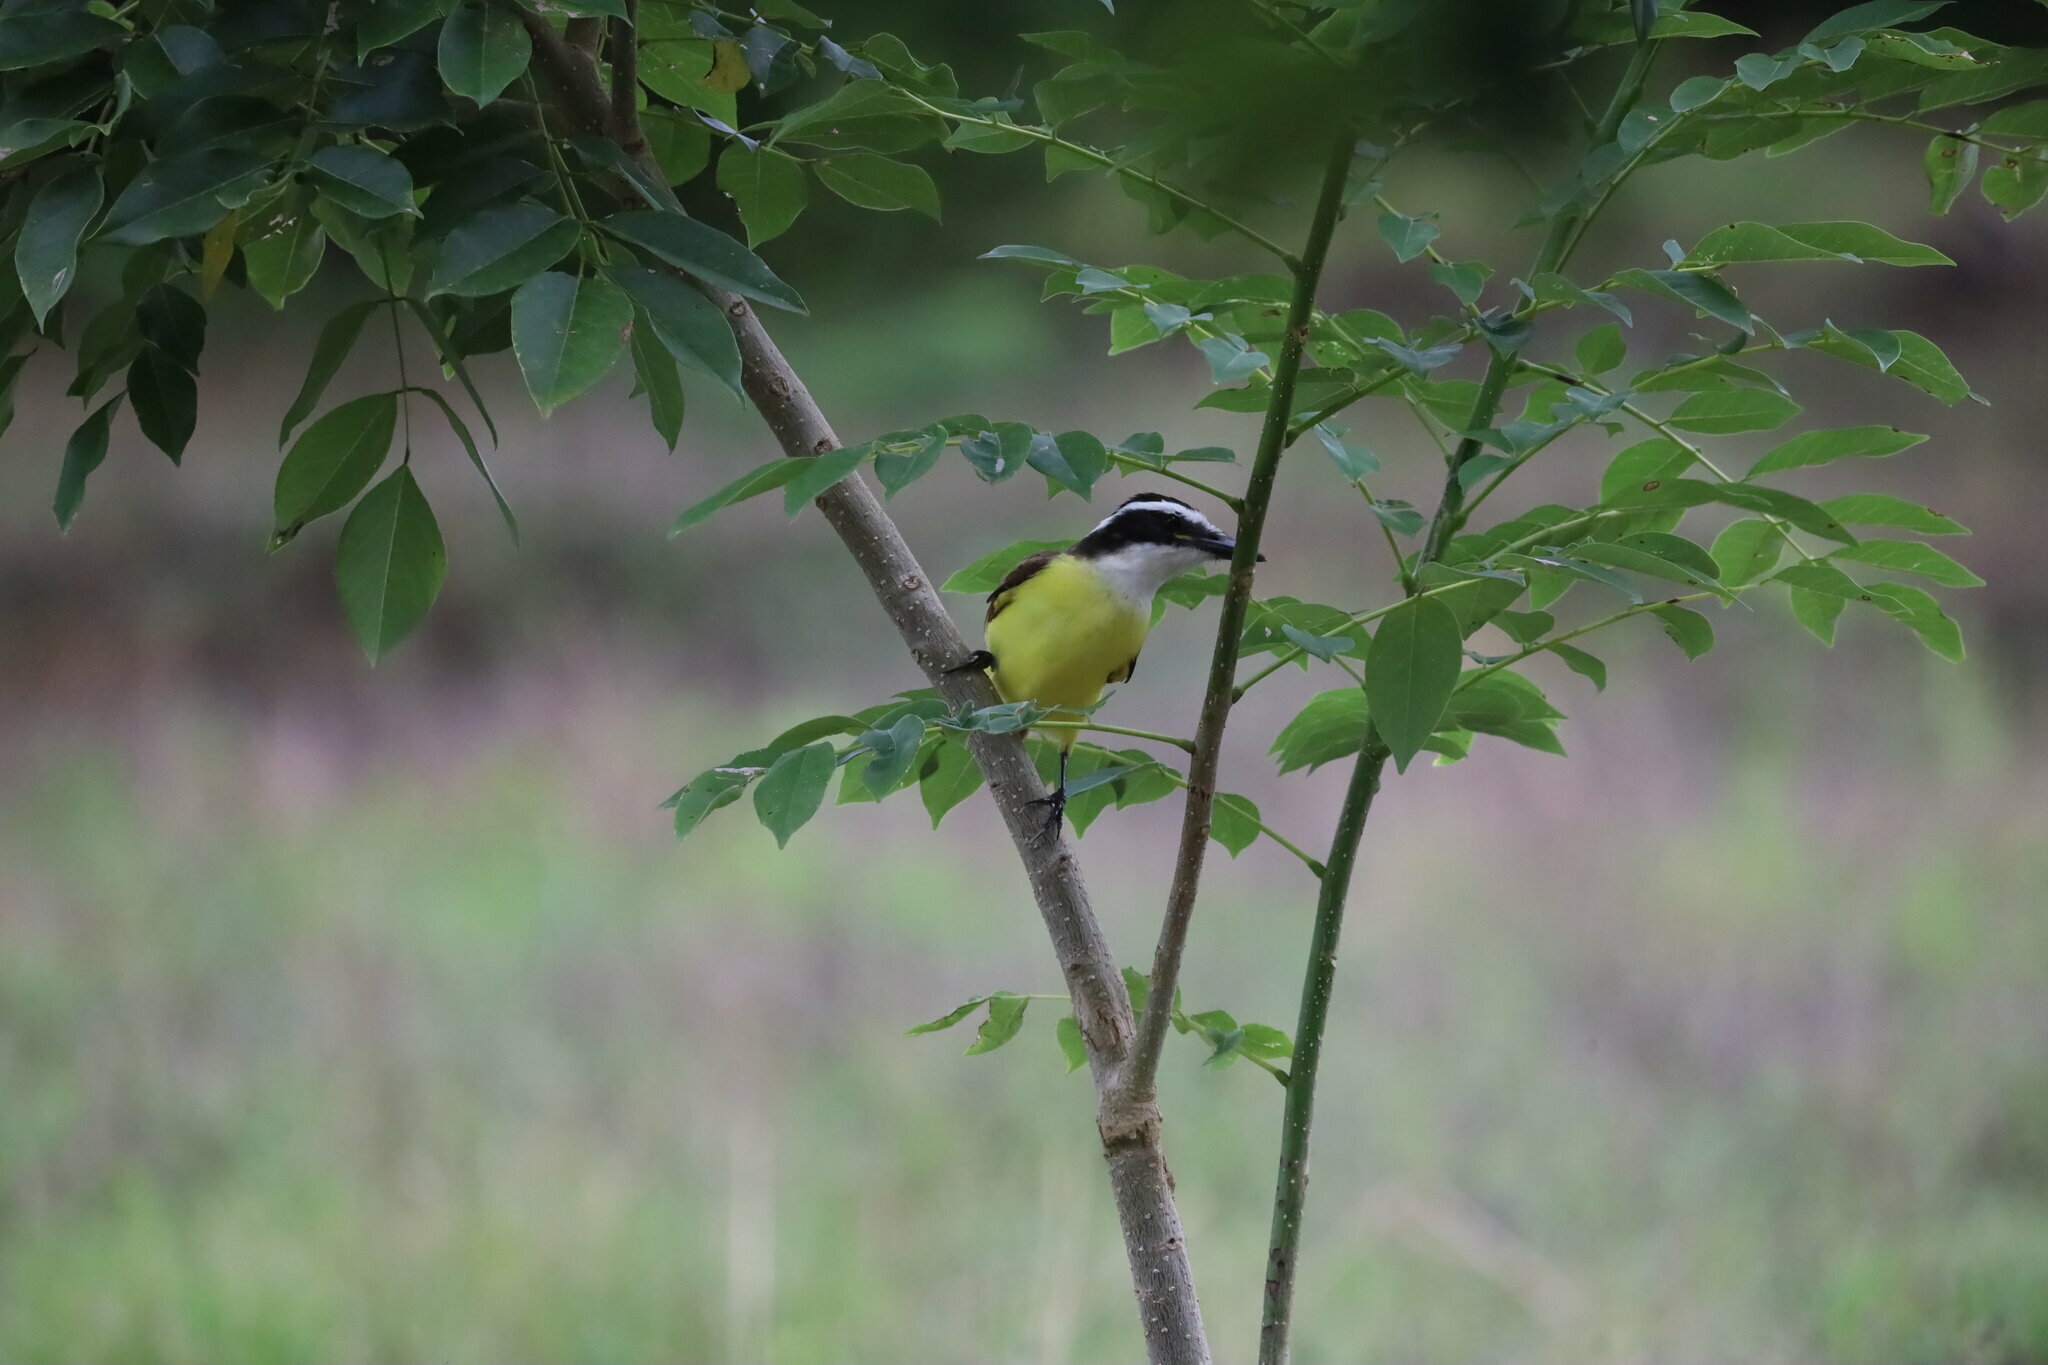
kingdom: Animalia
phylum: Chordata
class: Aves
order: Passeriformes
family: Tyrannidae
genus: Megarynchus
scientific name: Megarynchus pitangua
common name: Boat-billed flycatcher
